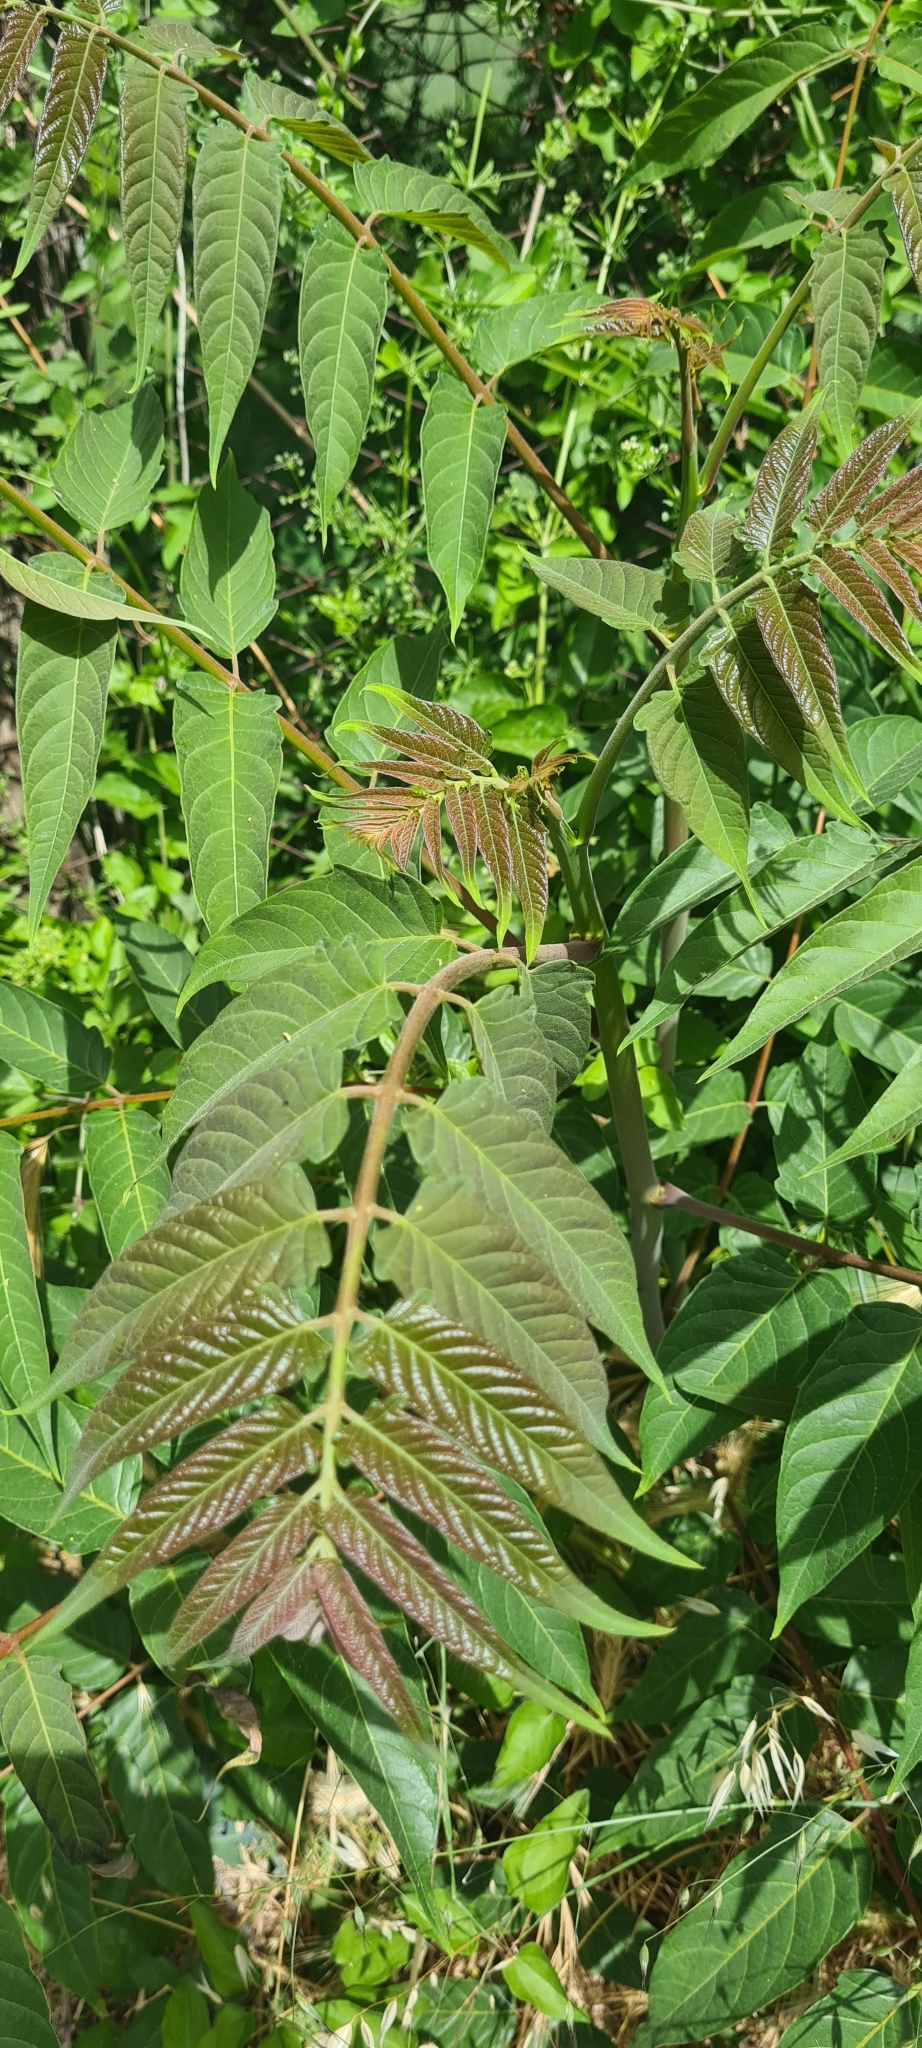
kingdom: Plantae
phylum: Tracheophyta
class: Magnoliopsida
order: Sapindales
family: Simaroubaceae
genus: Ailanthus
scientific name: Ailanthus altissima
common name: Tree-of-heaven
